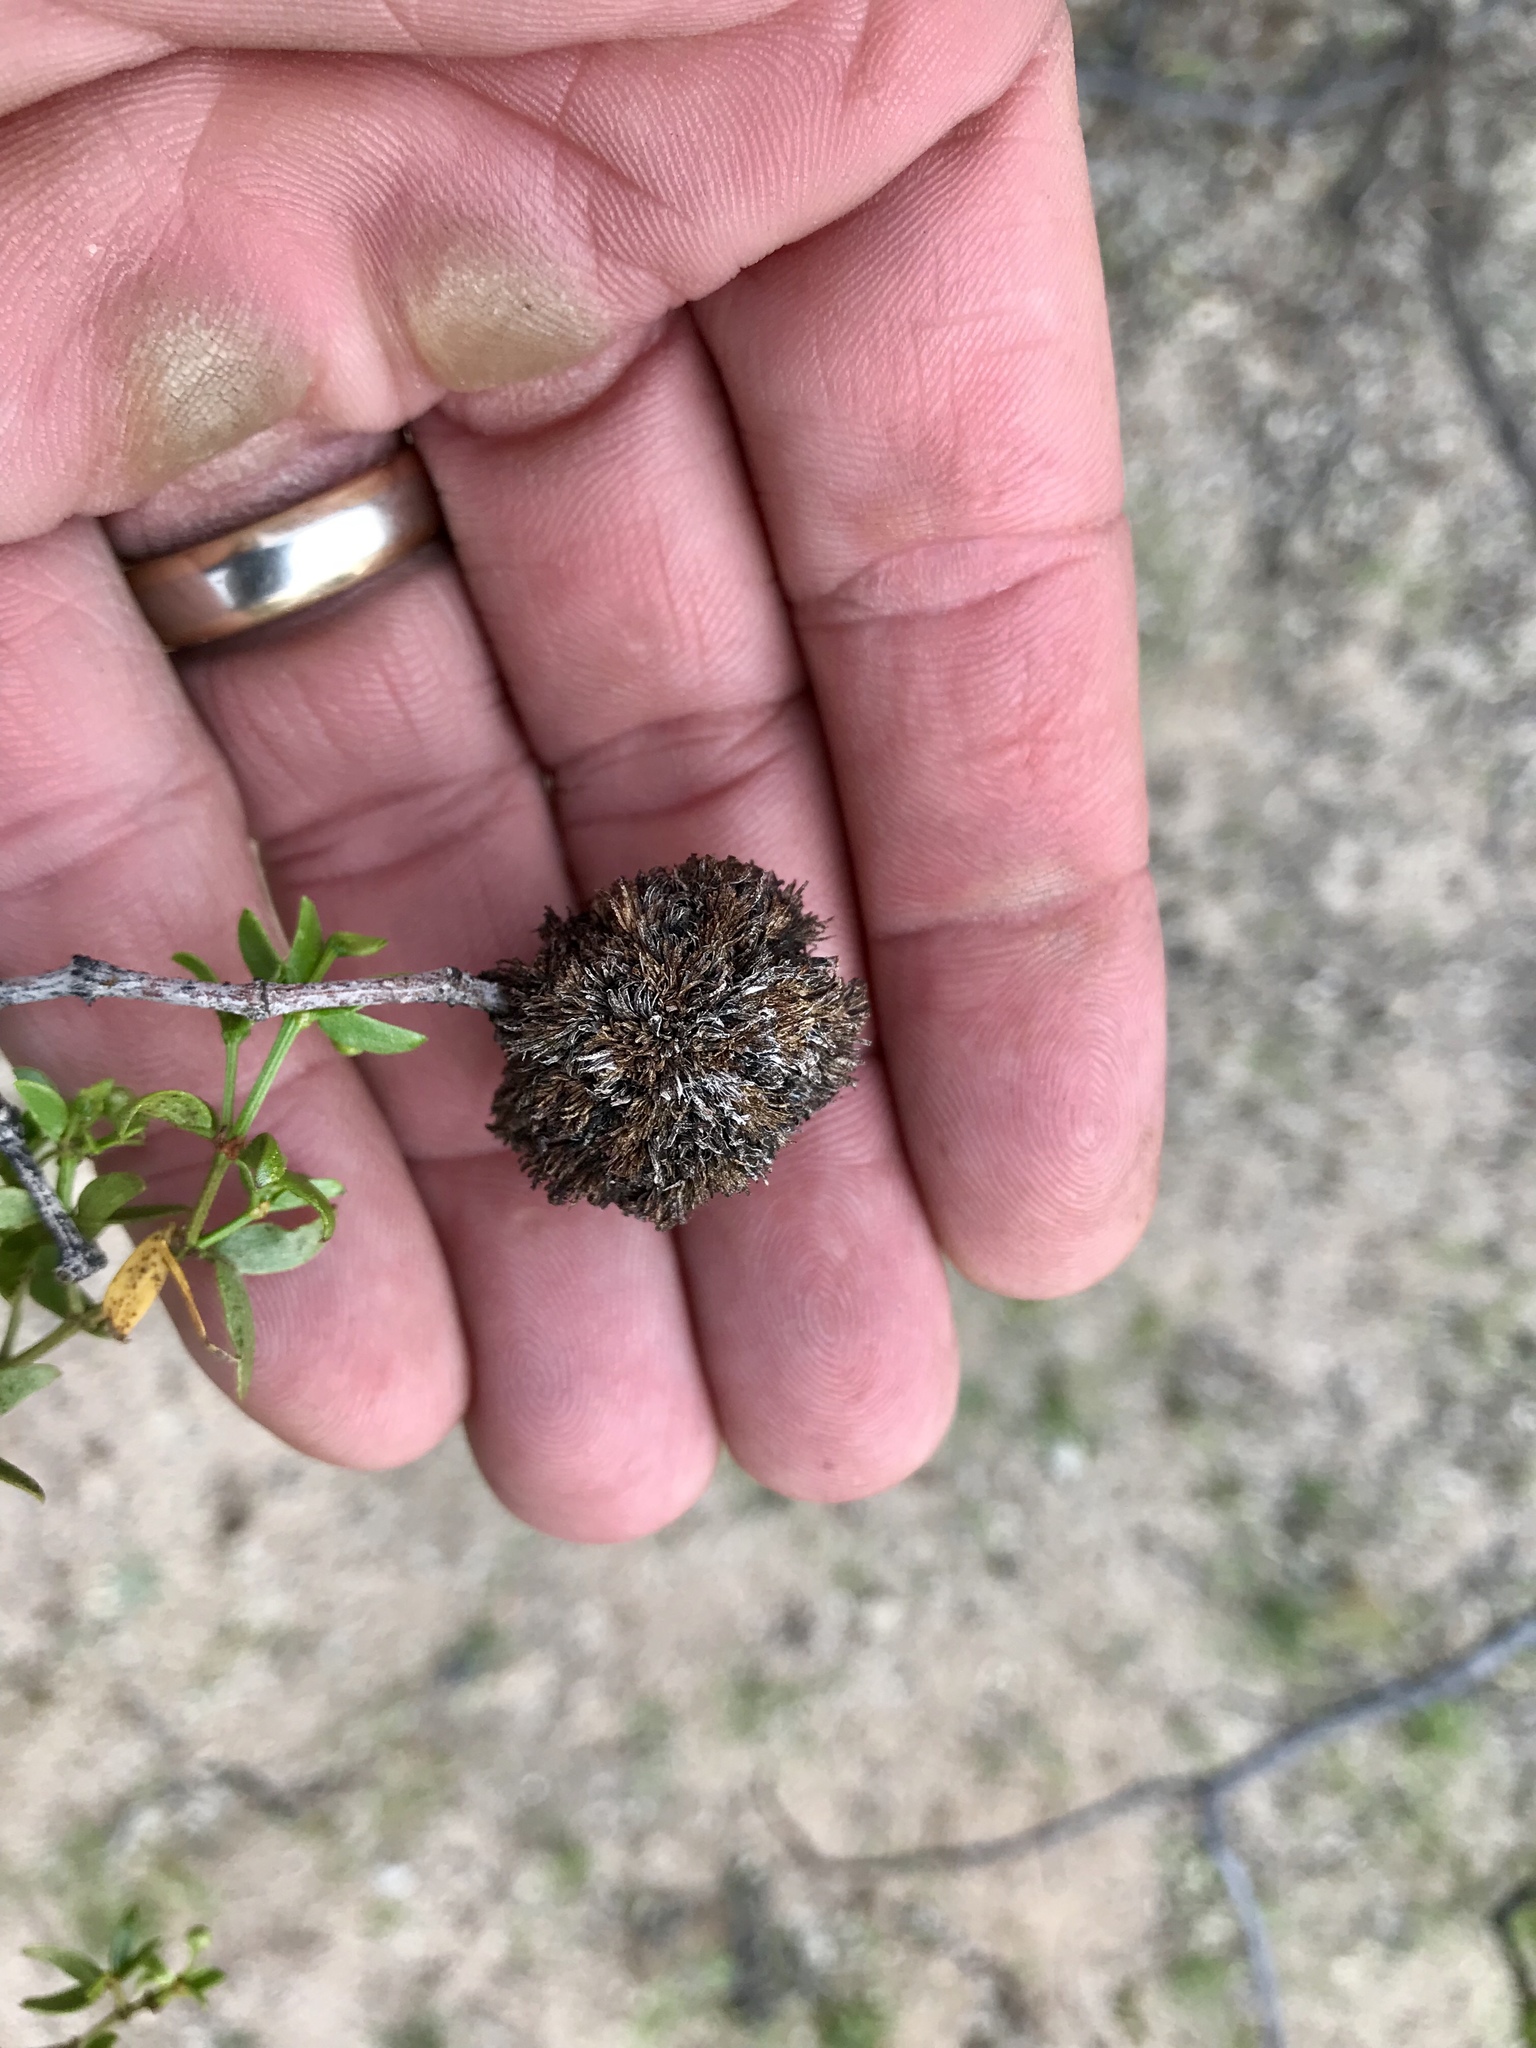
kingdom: Animalia
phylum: Arthropoda
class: Insecta
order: Diptera
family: Cecidomyiidae
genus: Asphondylia
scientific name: Asphondylia auripila
